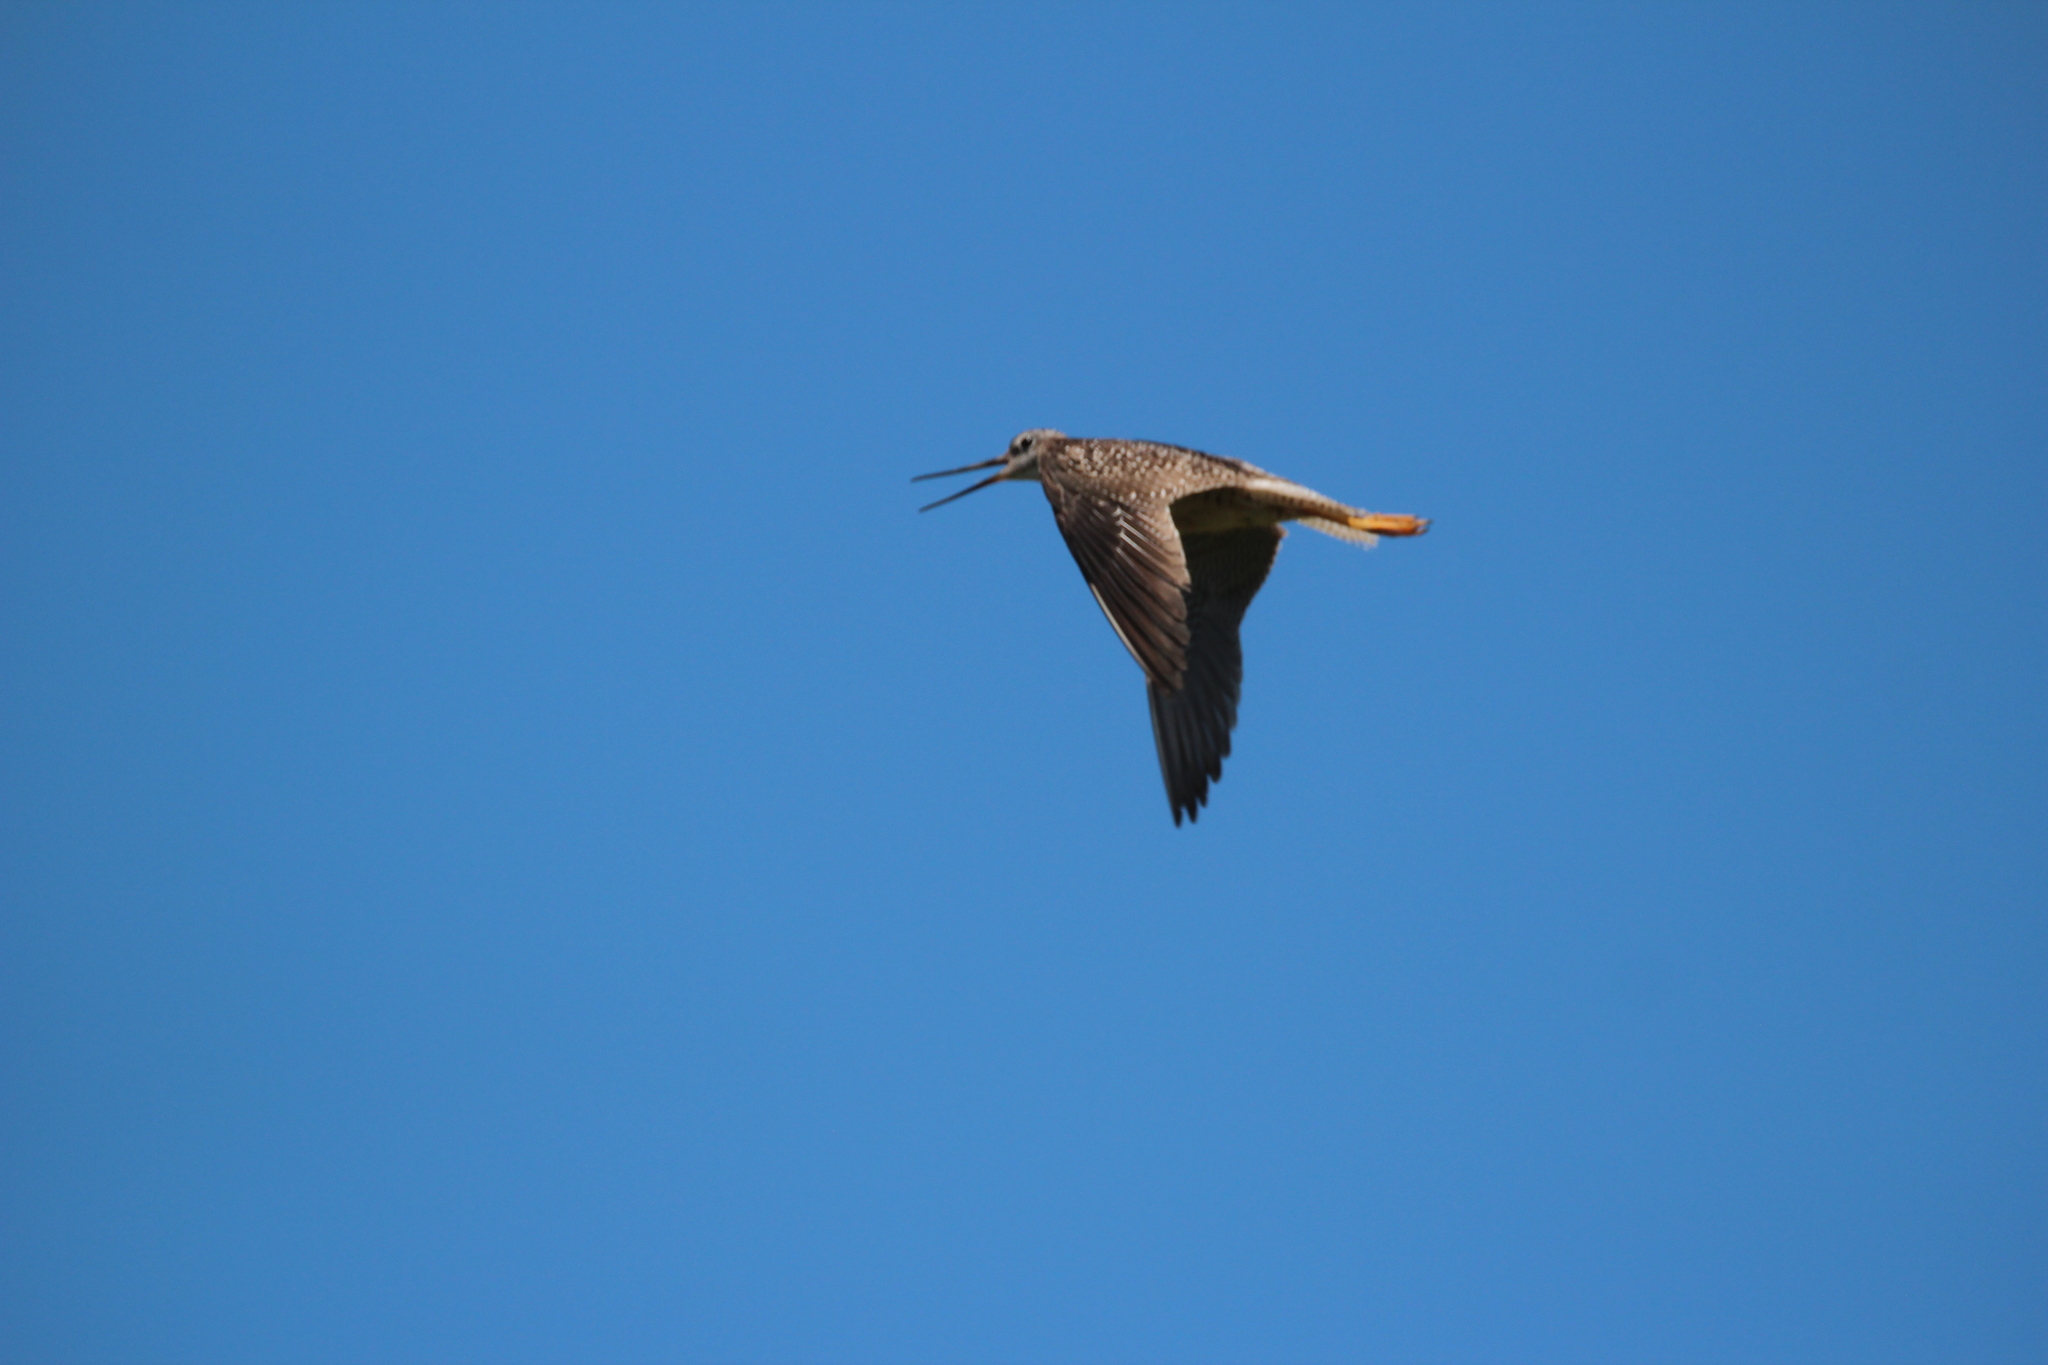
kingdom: Animalia
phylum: Chordata
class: Aves
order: Charadriiformes
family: Scolopacidae
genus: Tringa
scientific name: Tringa melanoleuca
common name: Greater yellowlegs
